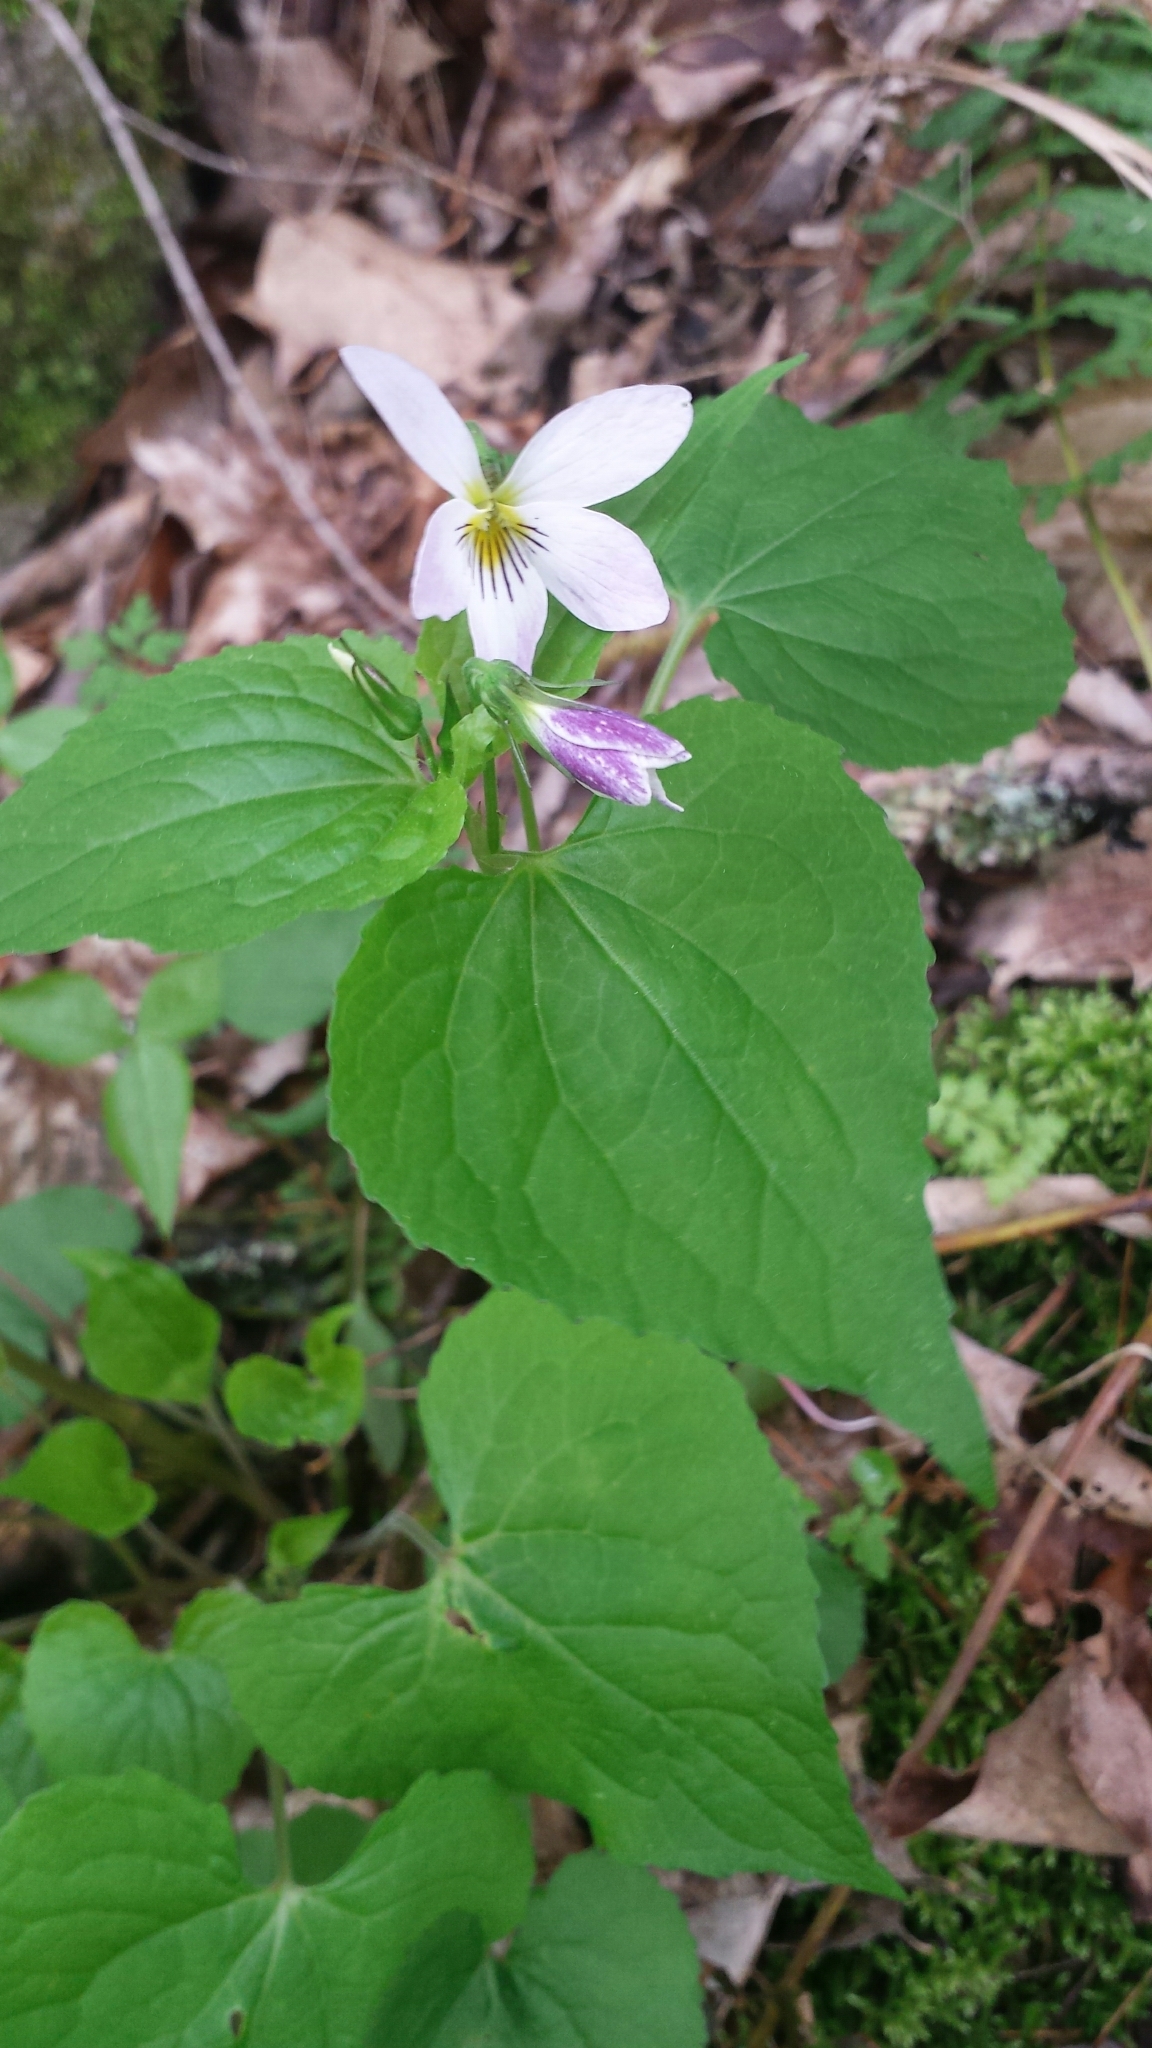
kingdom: Plantae
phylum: Tracheophyta
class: Magnoliopsida
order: Malpighiales
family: Violaceae
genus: Viola
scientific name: Viola canadensis
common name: Canada violet
